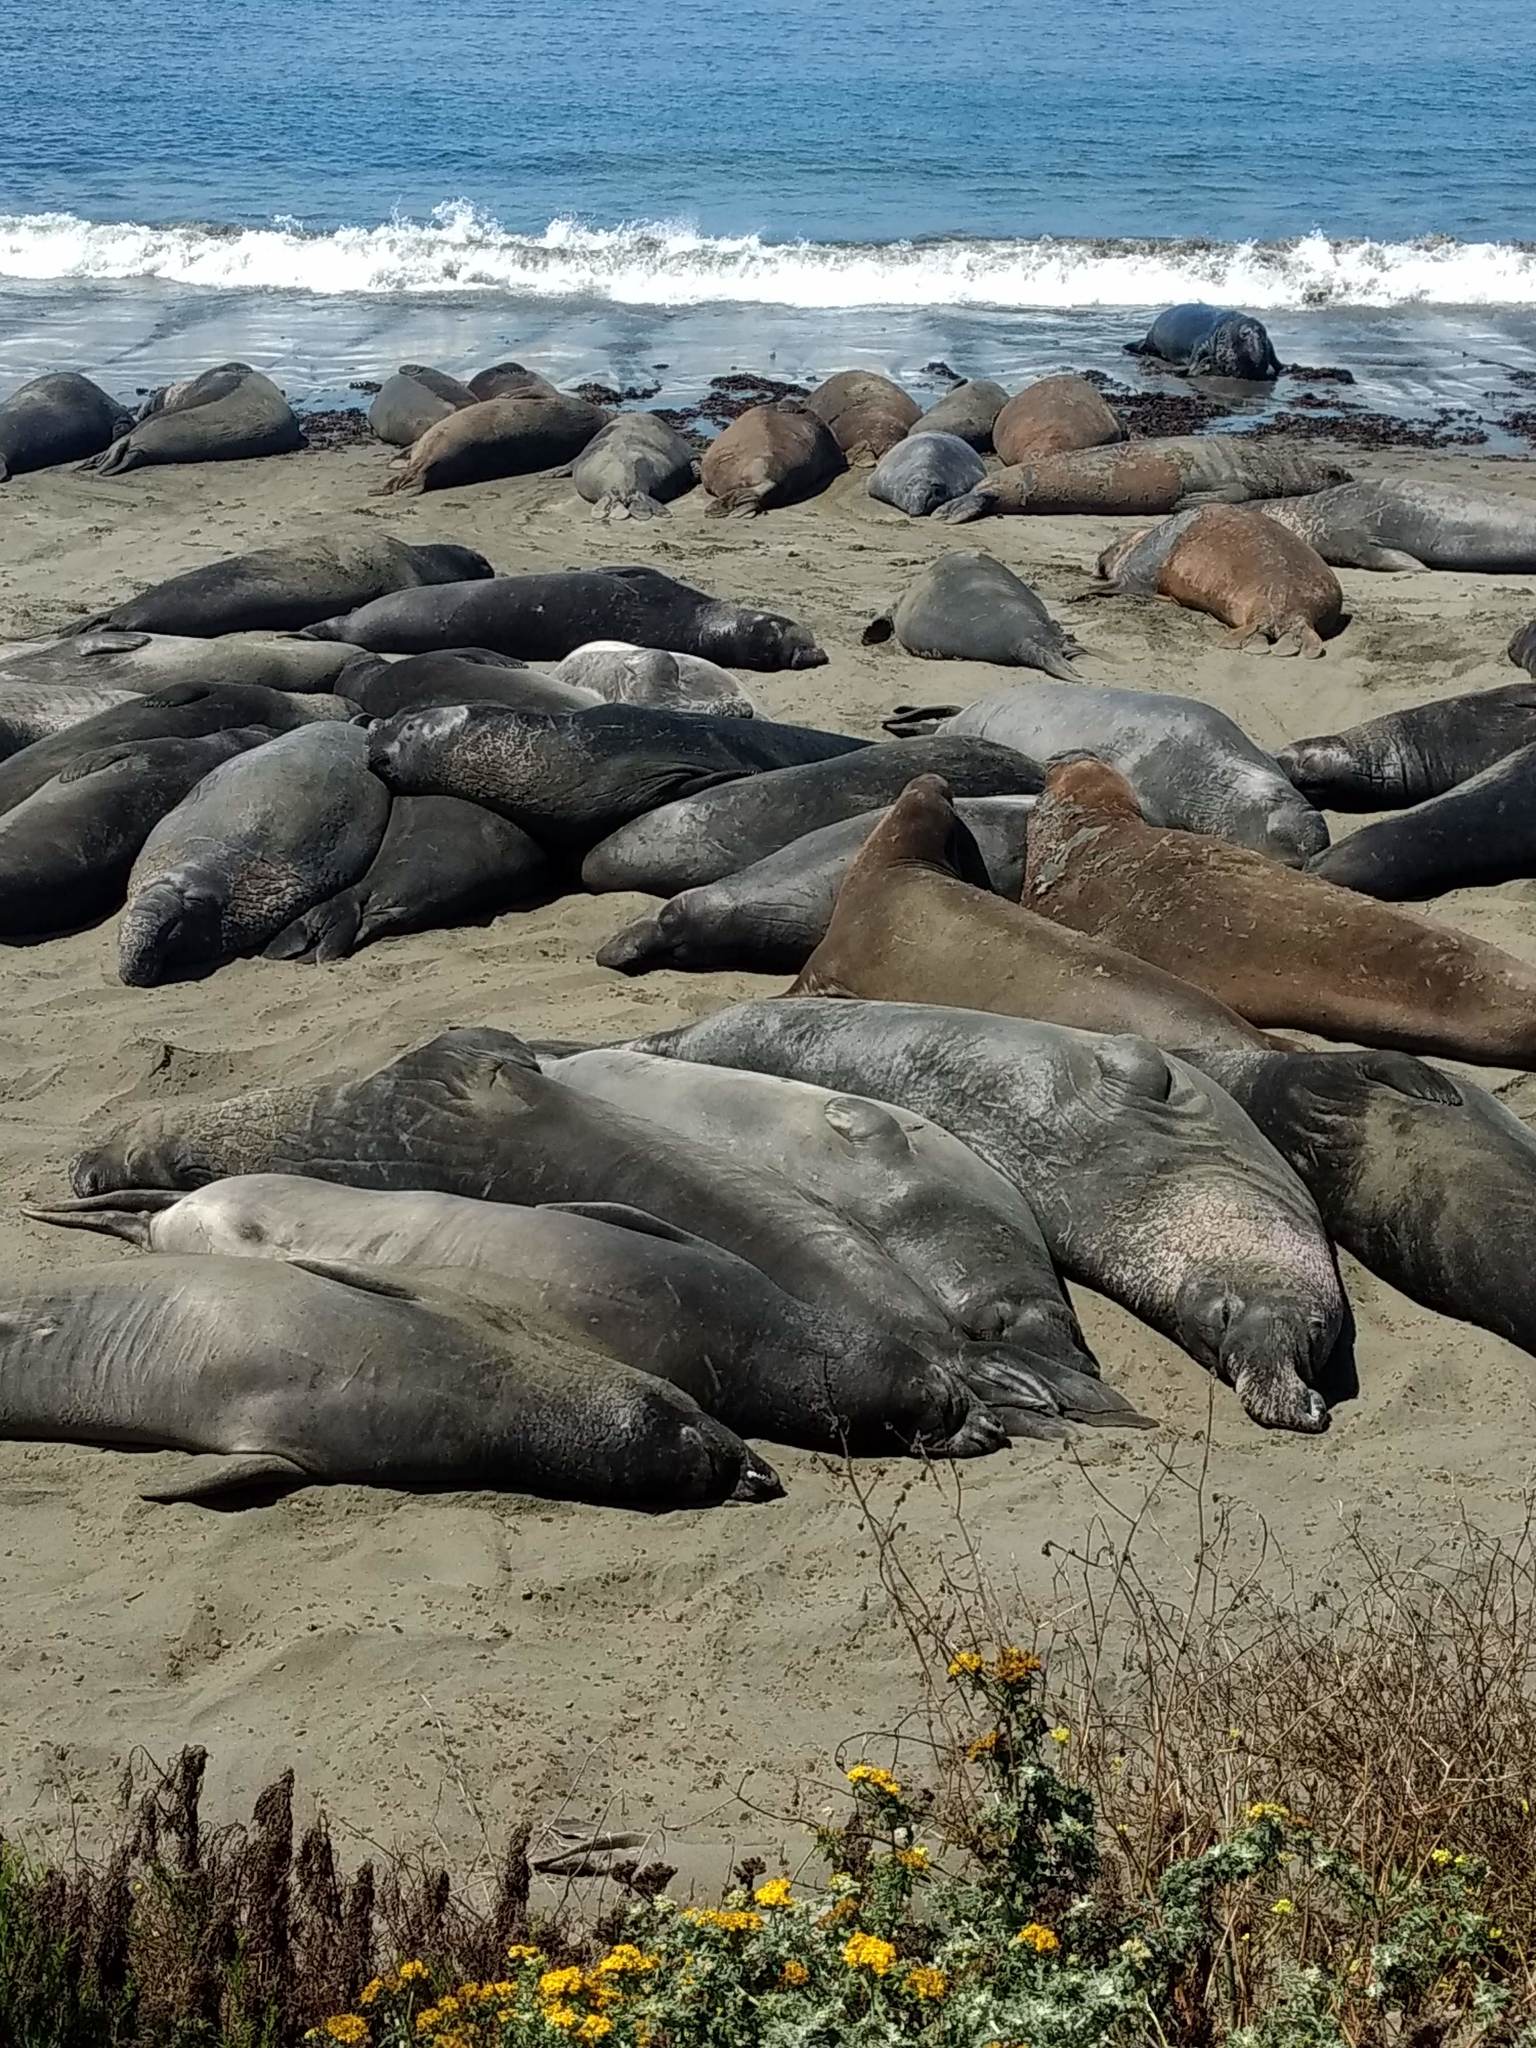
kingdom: Animalia
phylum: Chordata
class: Mammalia
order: Carnivora
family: Phocidae
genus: Mirounga
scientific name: Mirounga angustirostris
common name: Northern elephant seal
